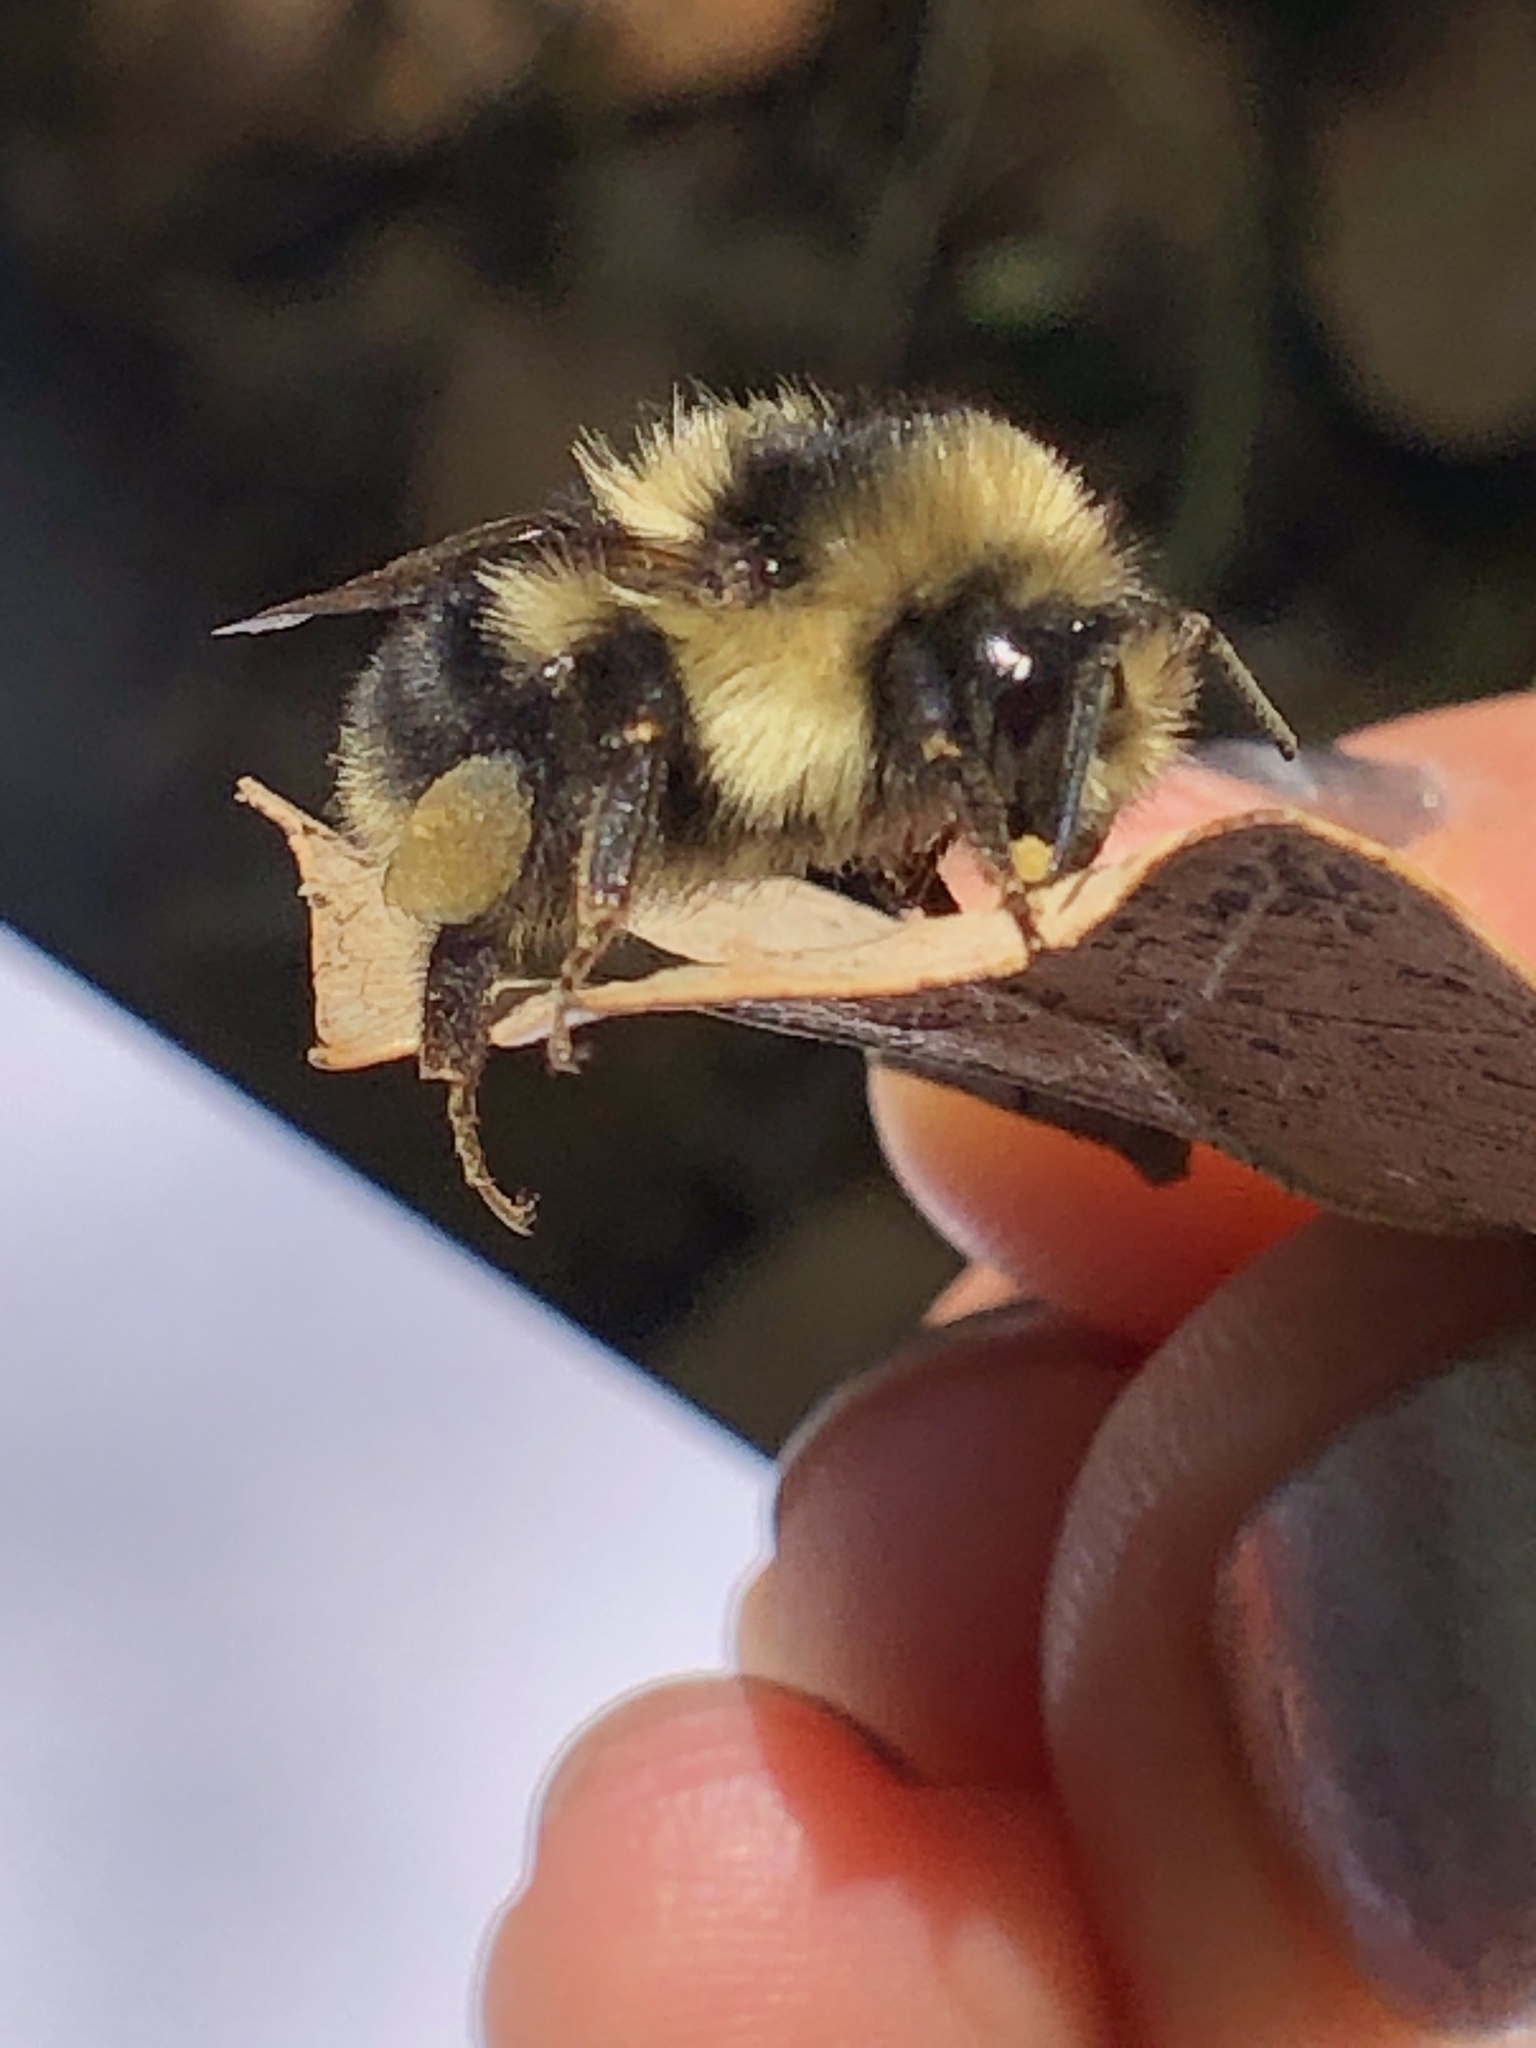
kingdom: Animalia
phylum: Arthropoda
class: Insecta
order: Hymenoptera
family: Apidae
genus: Bombus
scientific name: Bombus melanopygus
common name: Black tail bumble bee
